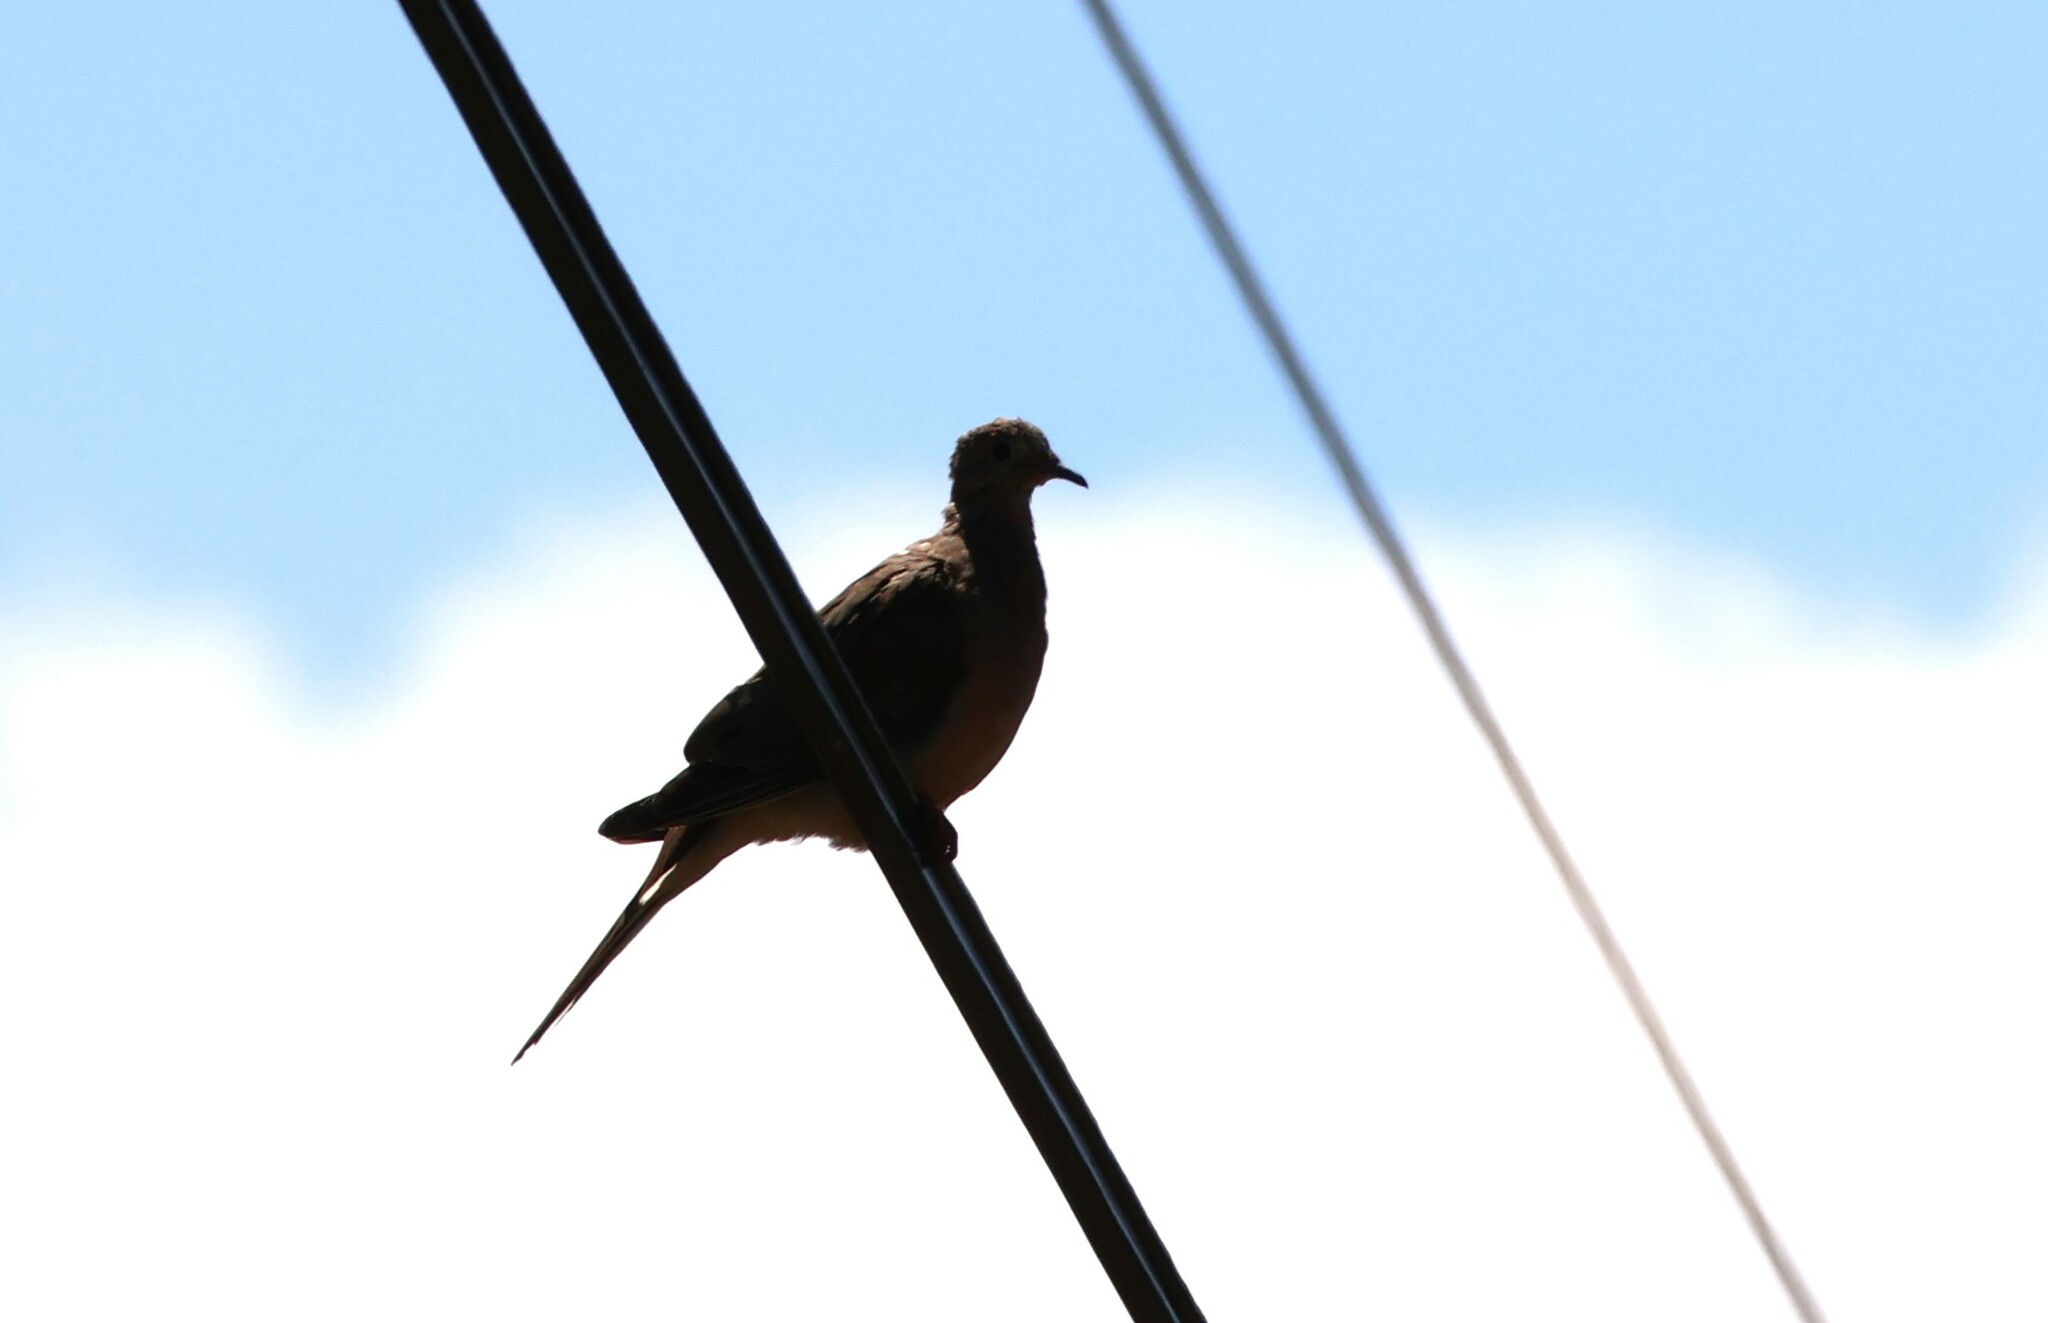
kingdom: Animalia
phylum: Chordata
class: Aves
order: Columbiformes
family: Columbidae
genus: Zenaida
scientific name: Zenaida macroura
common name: Mourning dove
